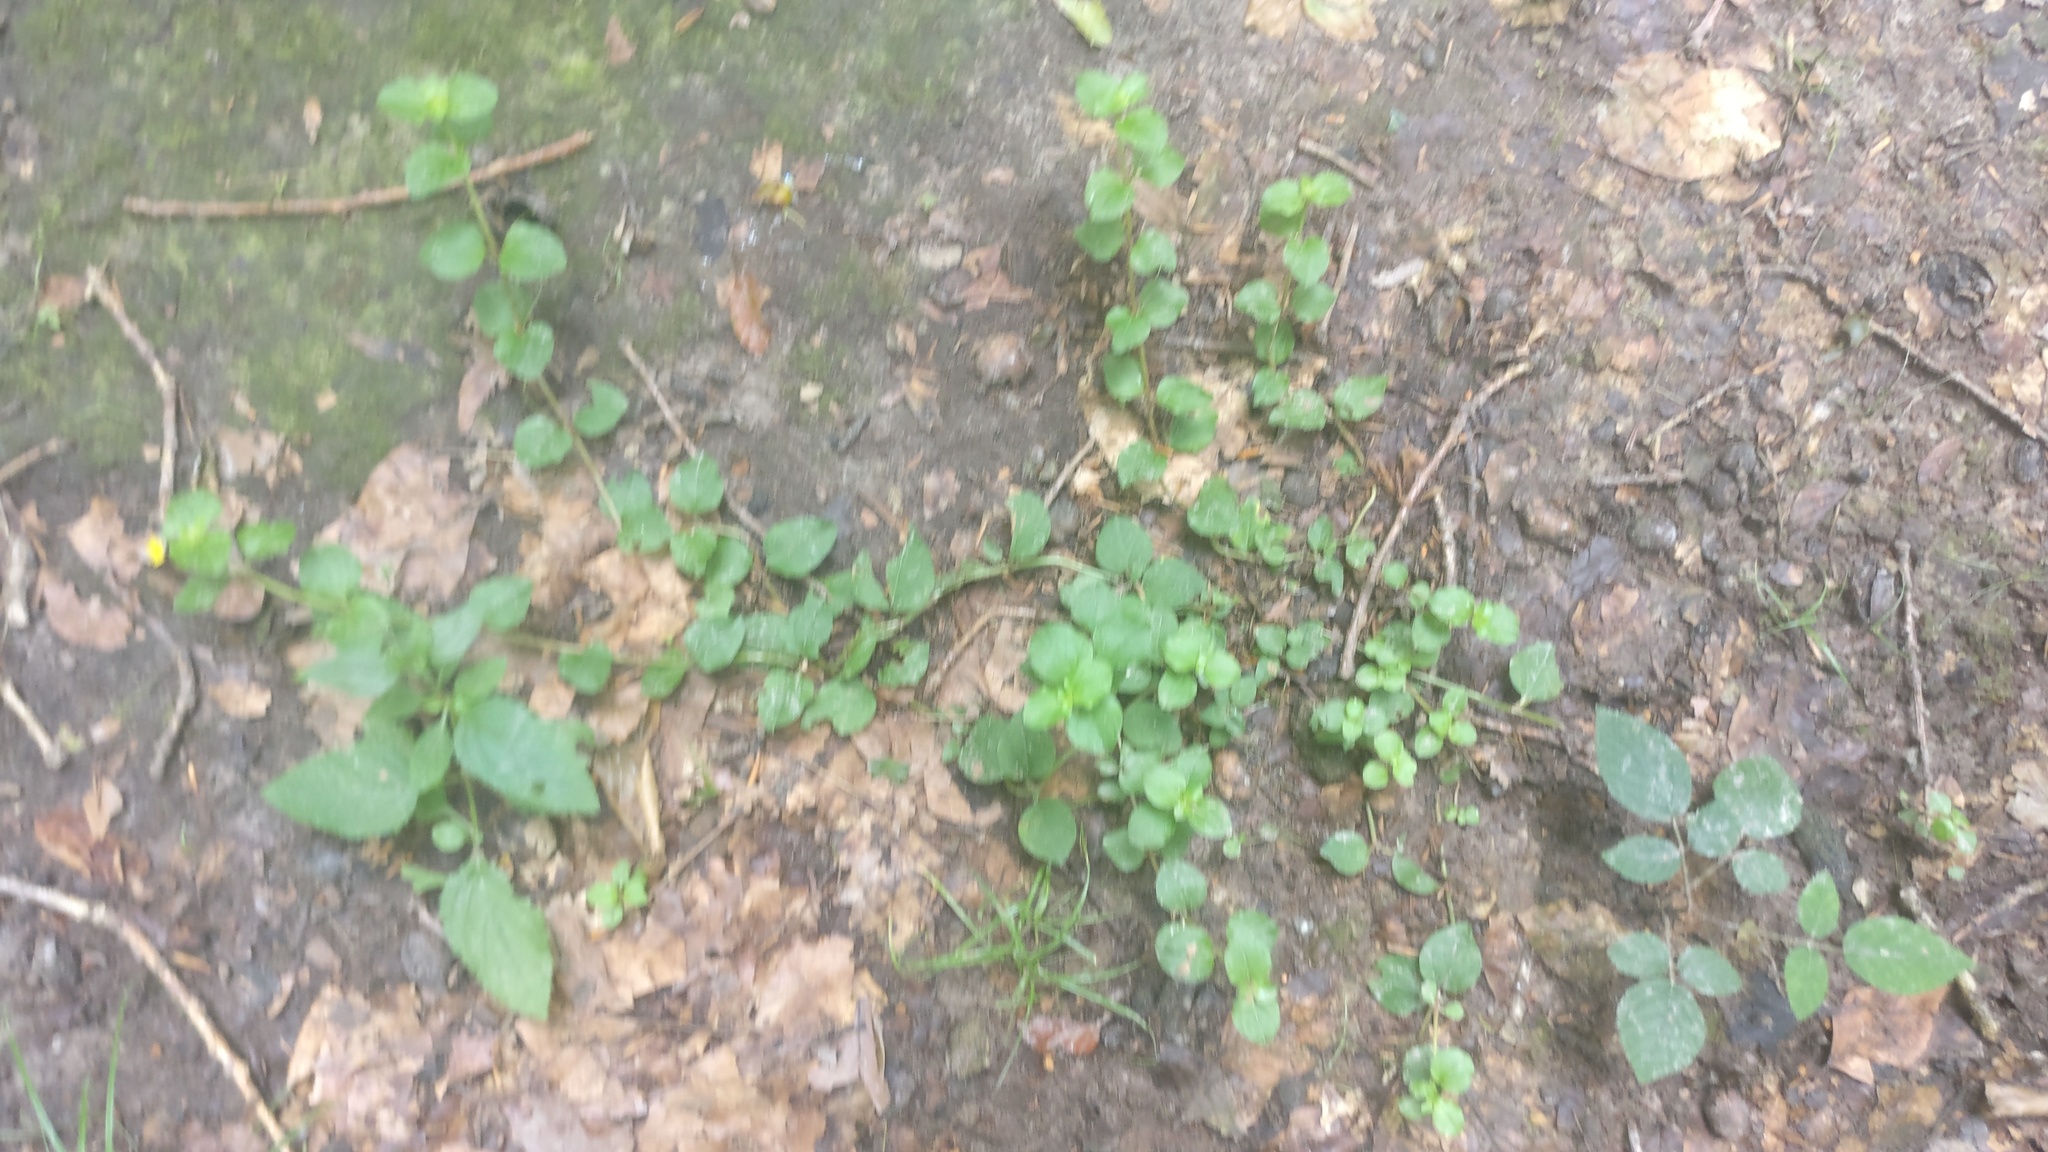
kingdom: Plantae
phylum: Tracheophyta
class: Magnoliopsida
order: Ericales
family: Primulaceae
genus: Lysimachia
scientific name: Lysimachia nemorum
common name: Yellow pimpernel
